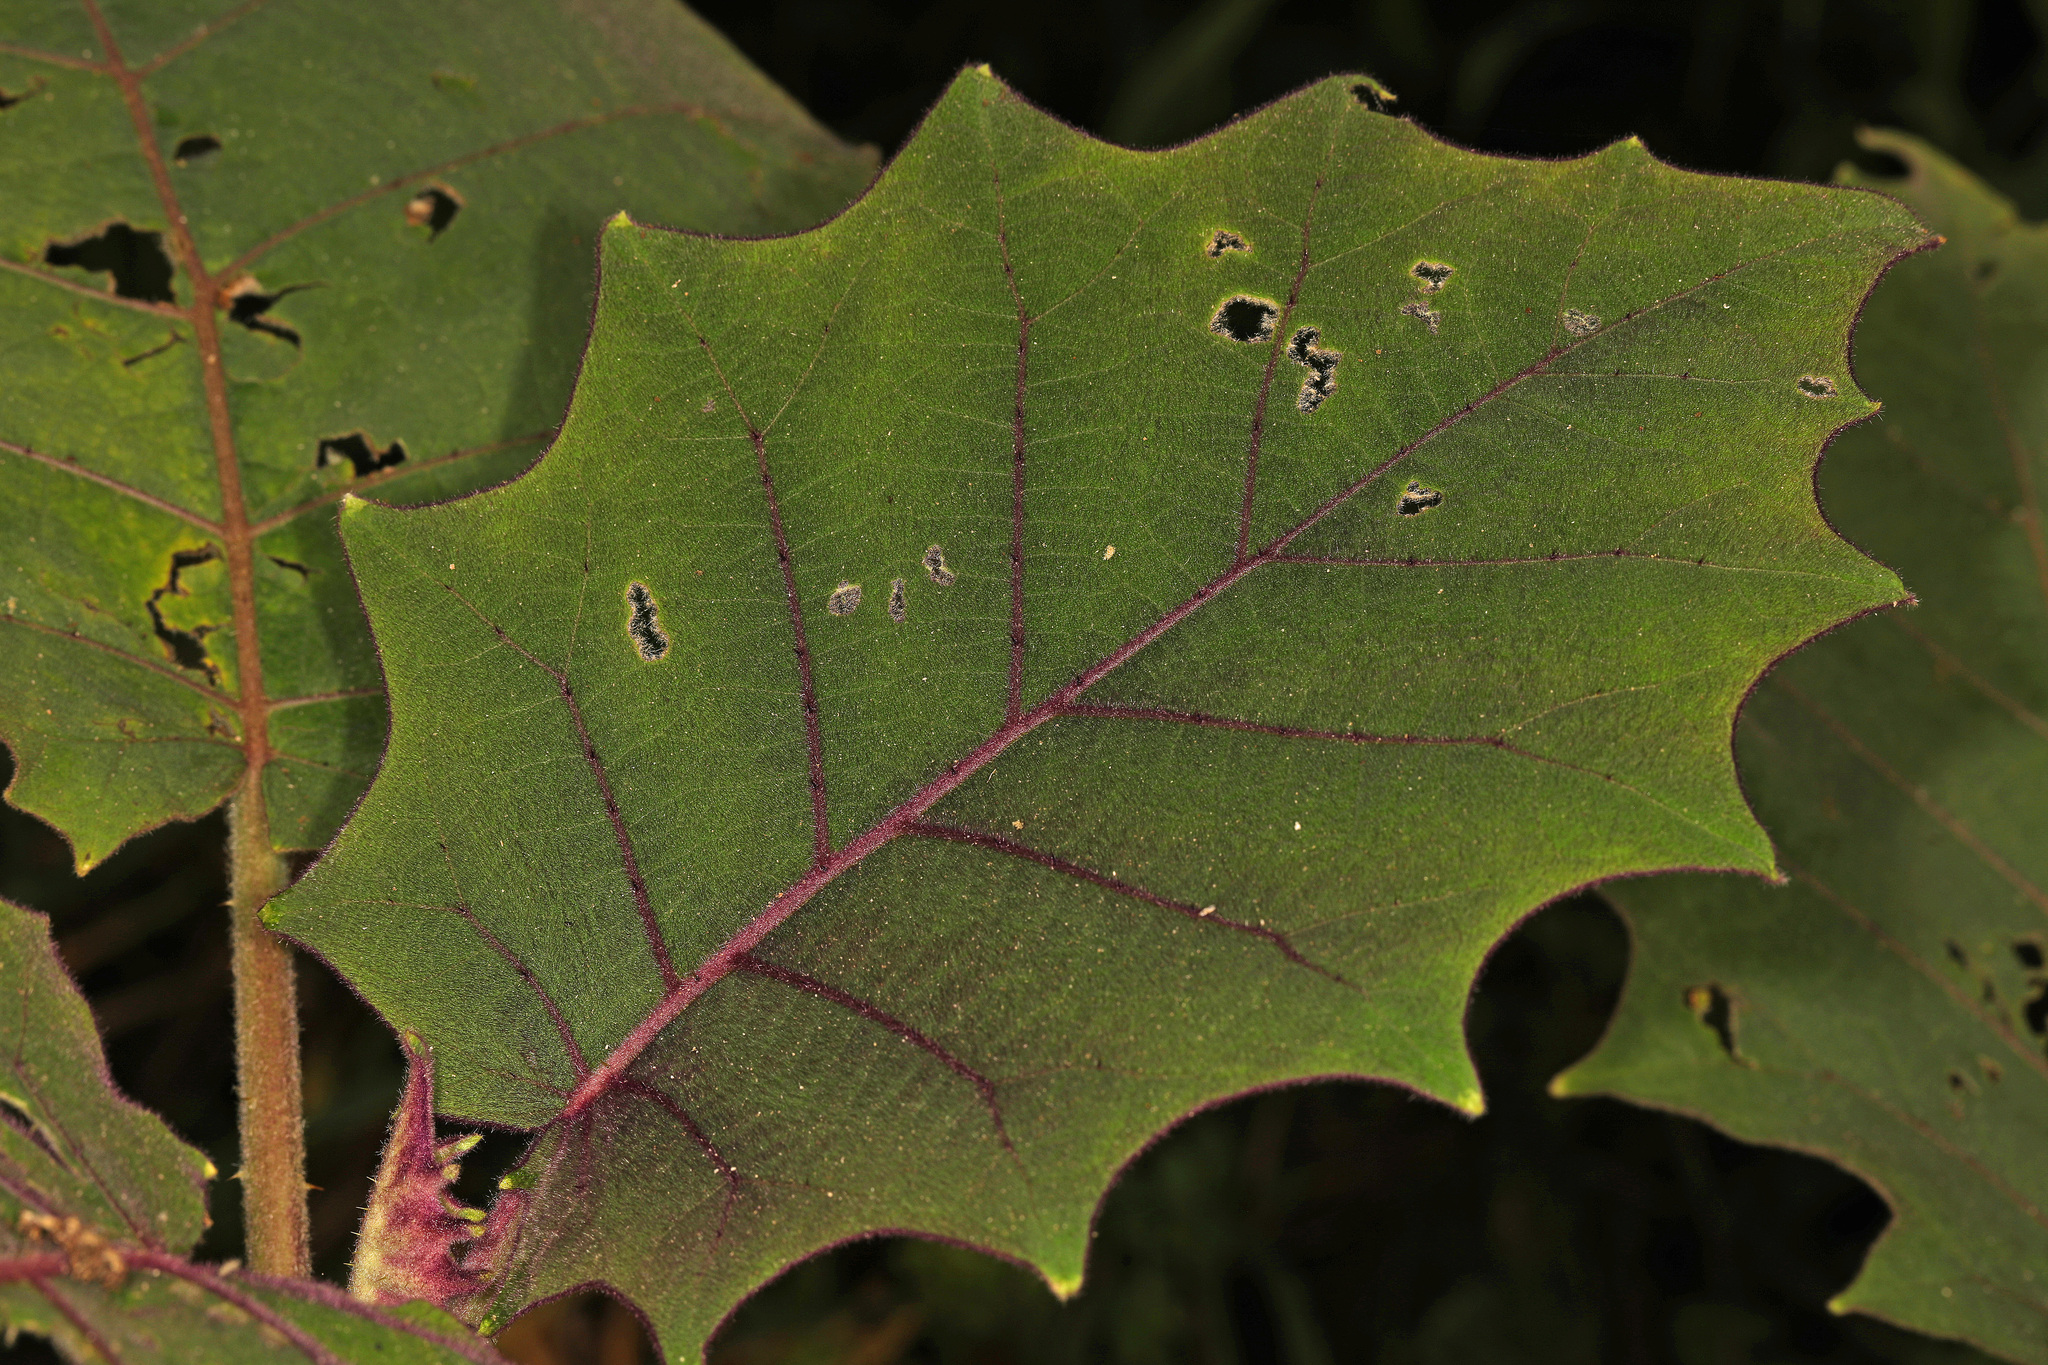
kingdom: Plantae
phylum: Tracheophyta
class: Magnoliopsida
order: Solanales
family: Solanaceae
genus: Solanum
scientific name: Solanum quitoense
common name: Quito-orange
